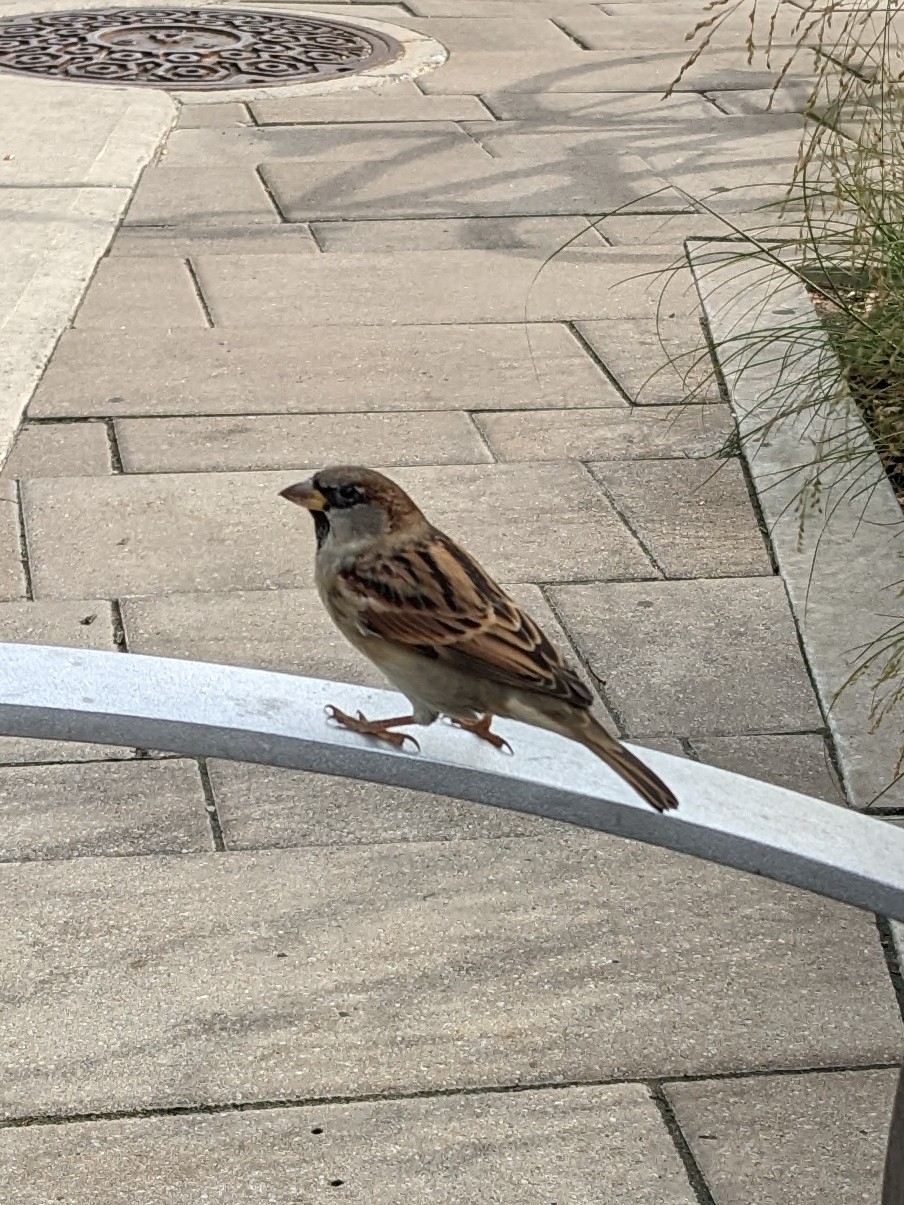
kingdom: Animalia
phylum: Chordata
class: Aves
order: Passeriformes
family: Passeridae
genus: Passer
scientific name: Passer domesticus
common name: House sparrow
